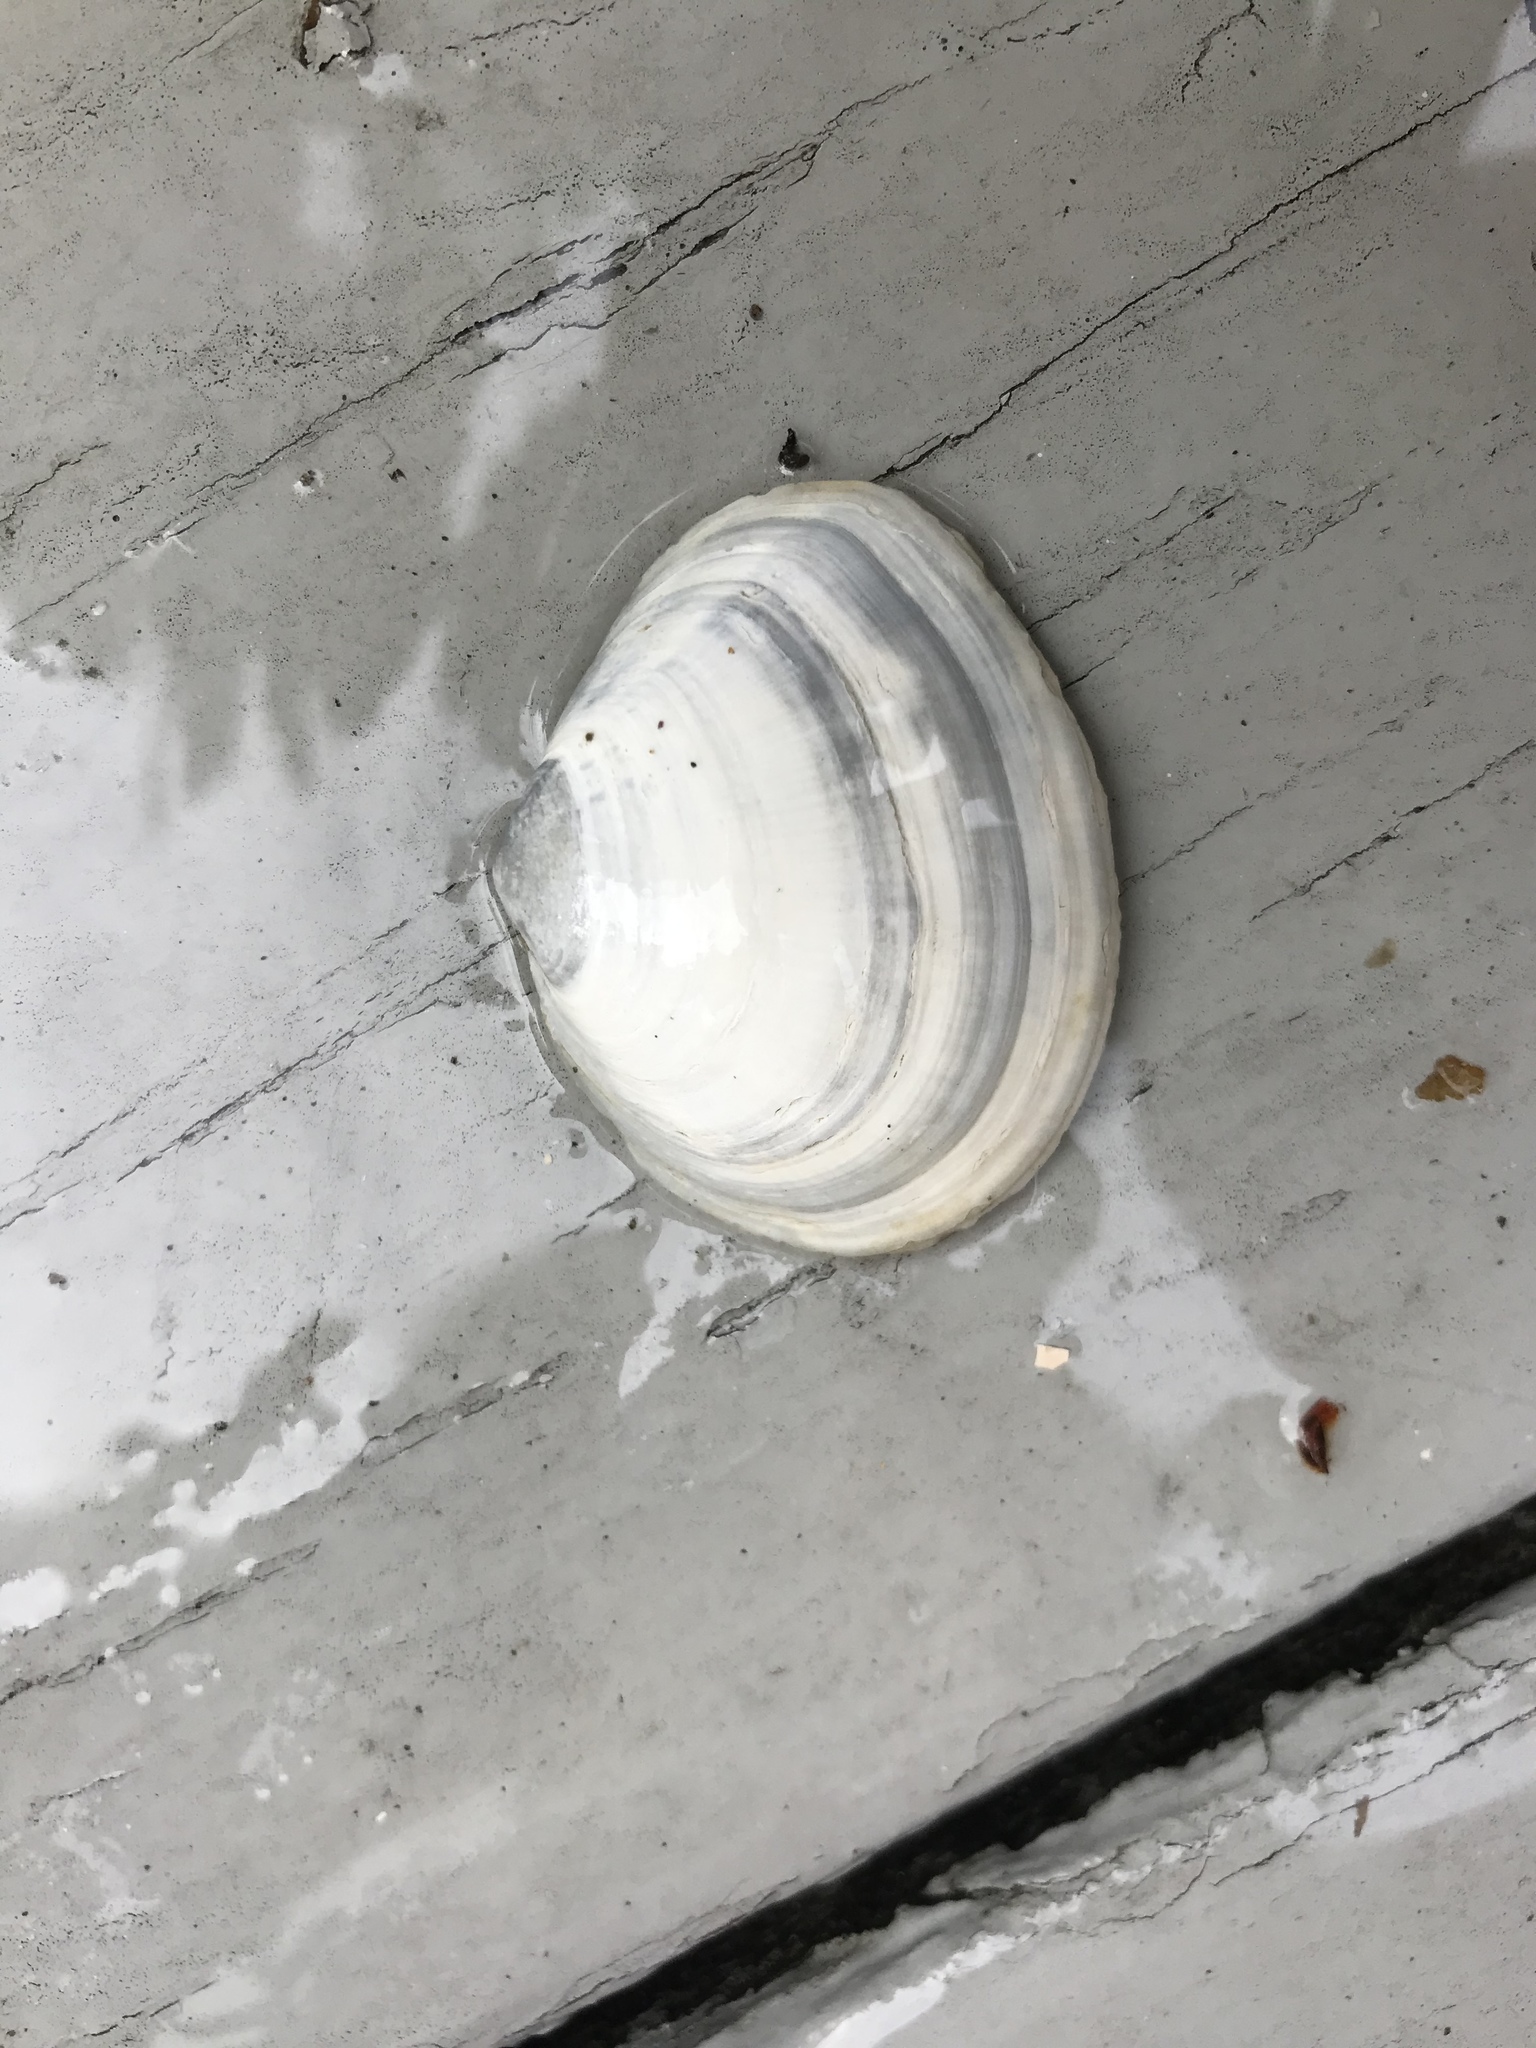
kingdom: Animalia
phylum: Mollusca
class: Bivalvia
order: Cardiida
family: Tellinidae
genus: Macoma
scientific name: Macoma nasuta
